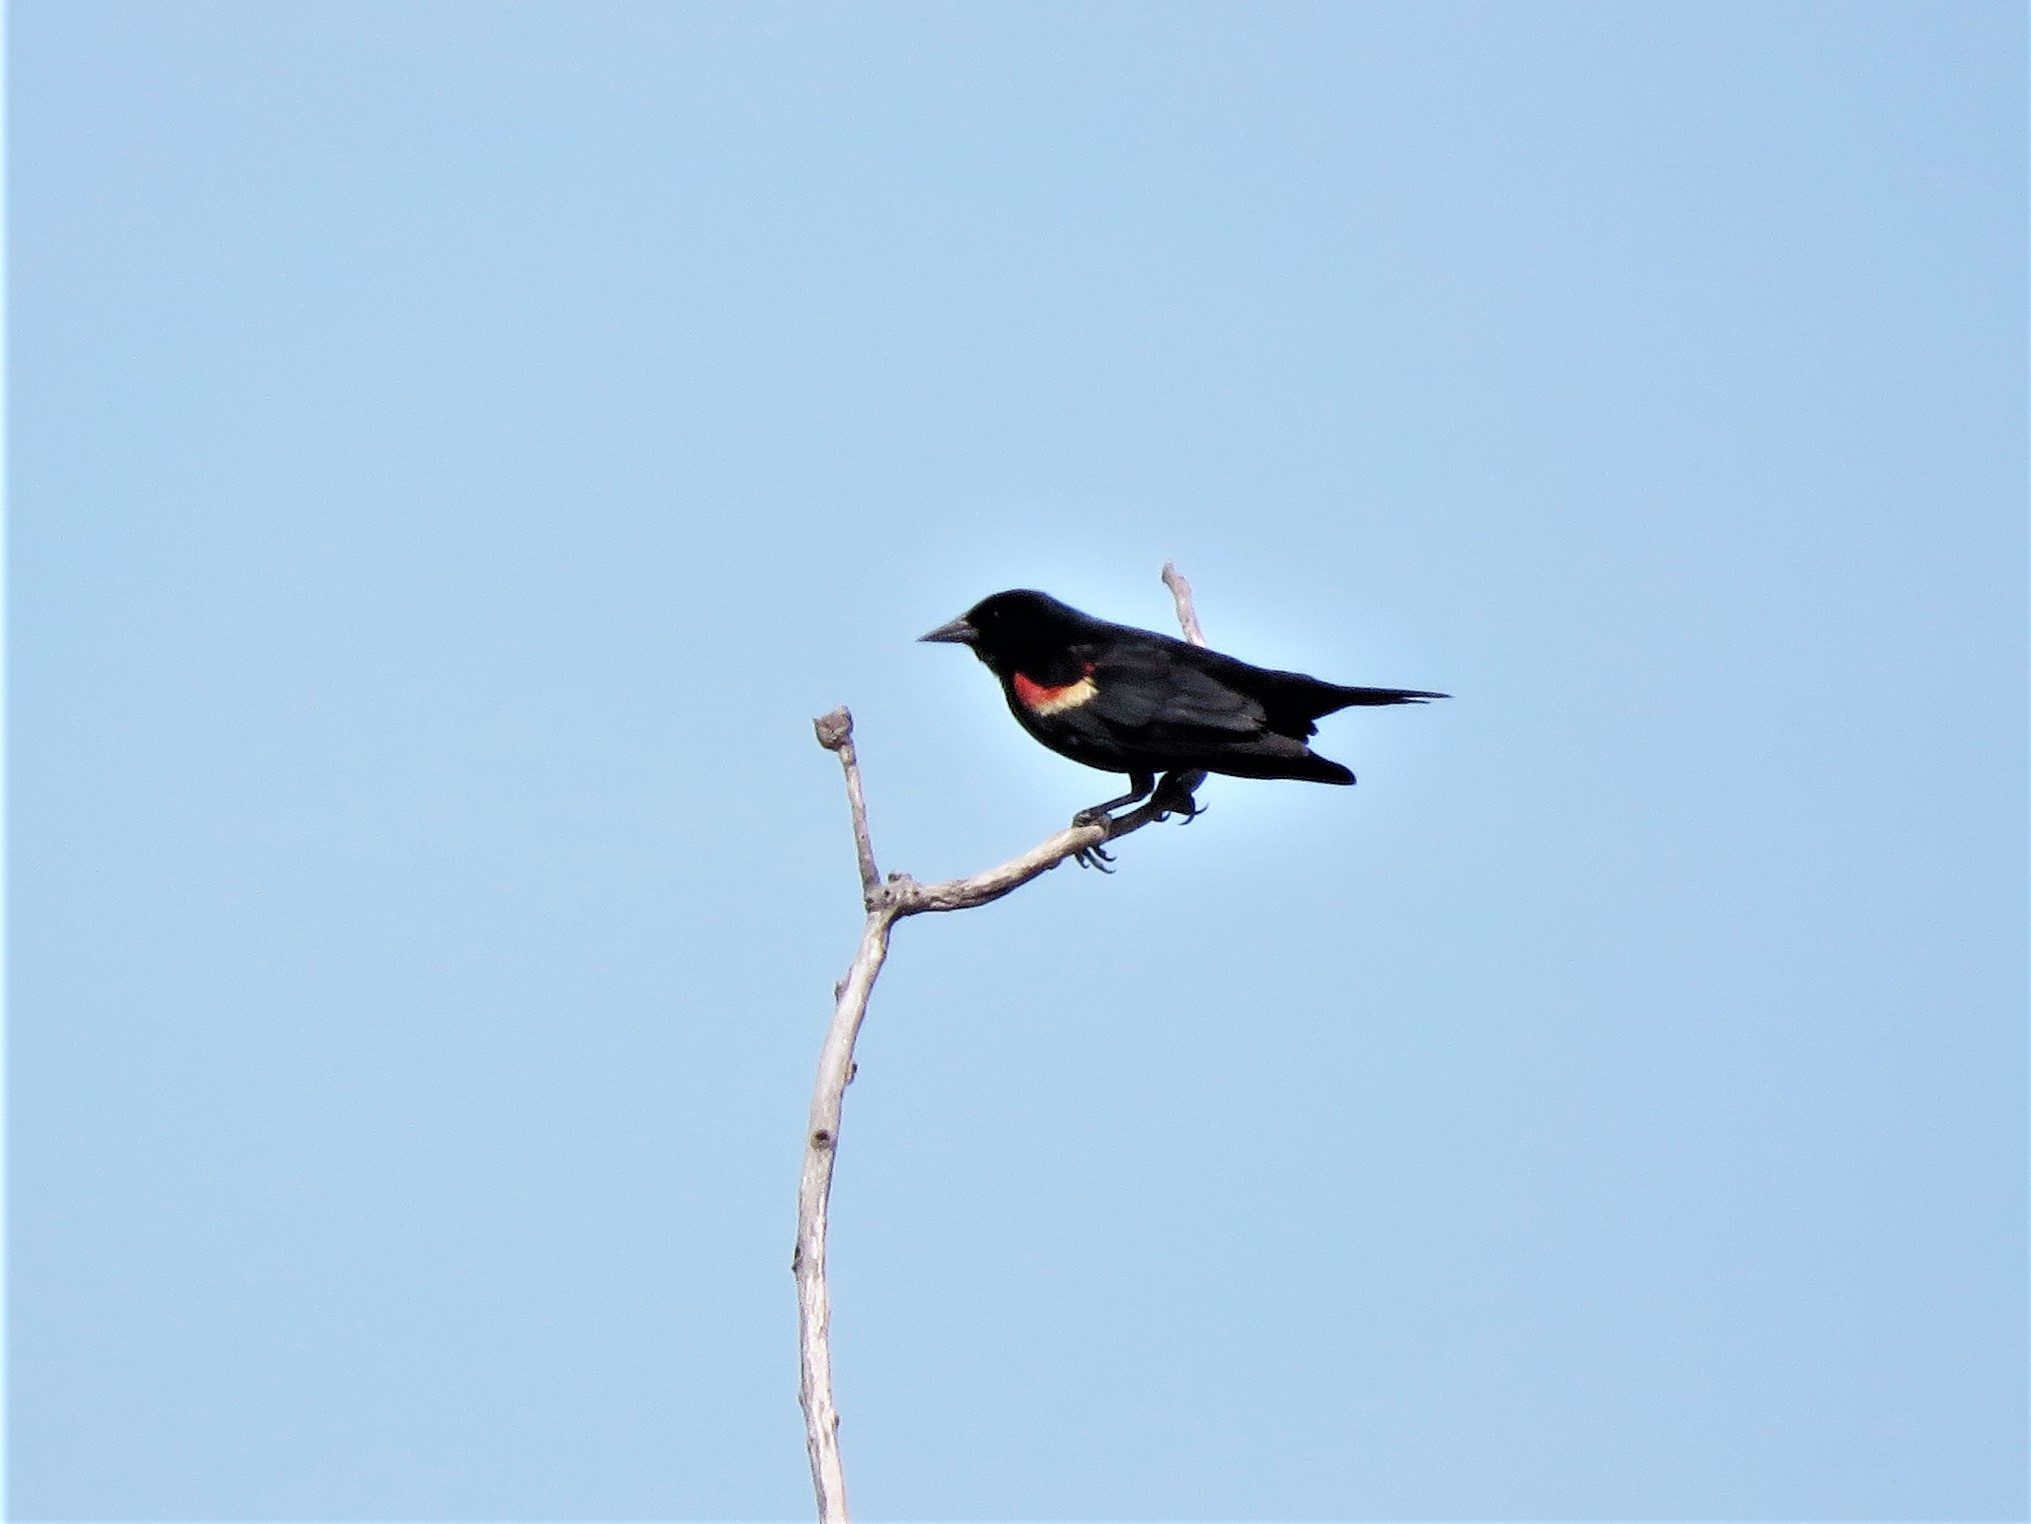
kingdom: Animalia
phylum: Chordata
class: Aves
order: Passeriformes
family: Icteridae
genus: Agelaius
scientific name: Agelaius phoeniceus
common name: Red-winged blackbird
